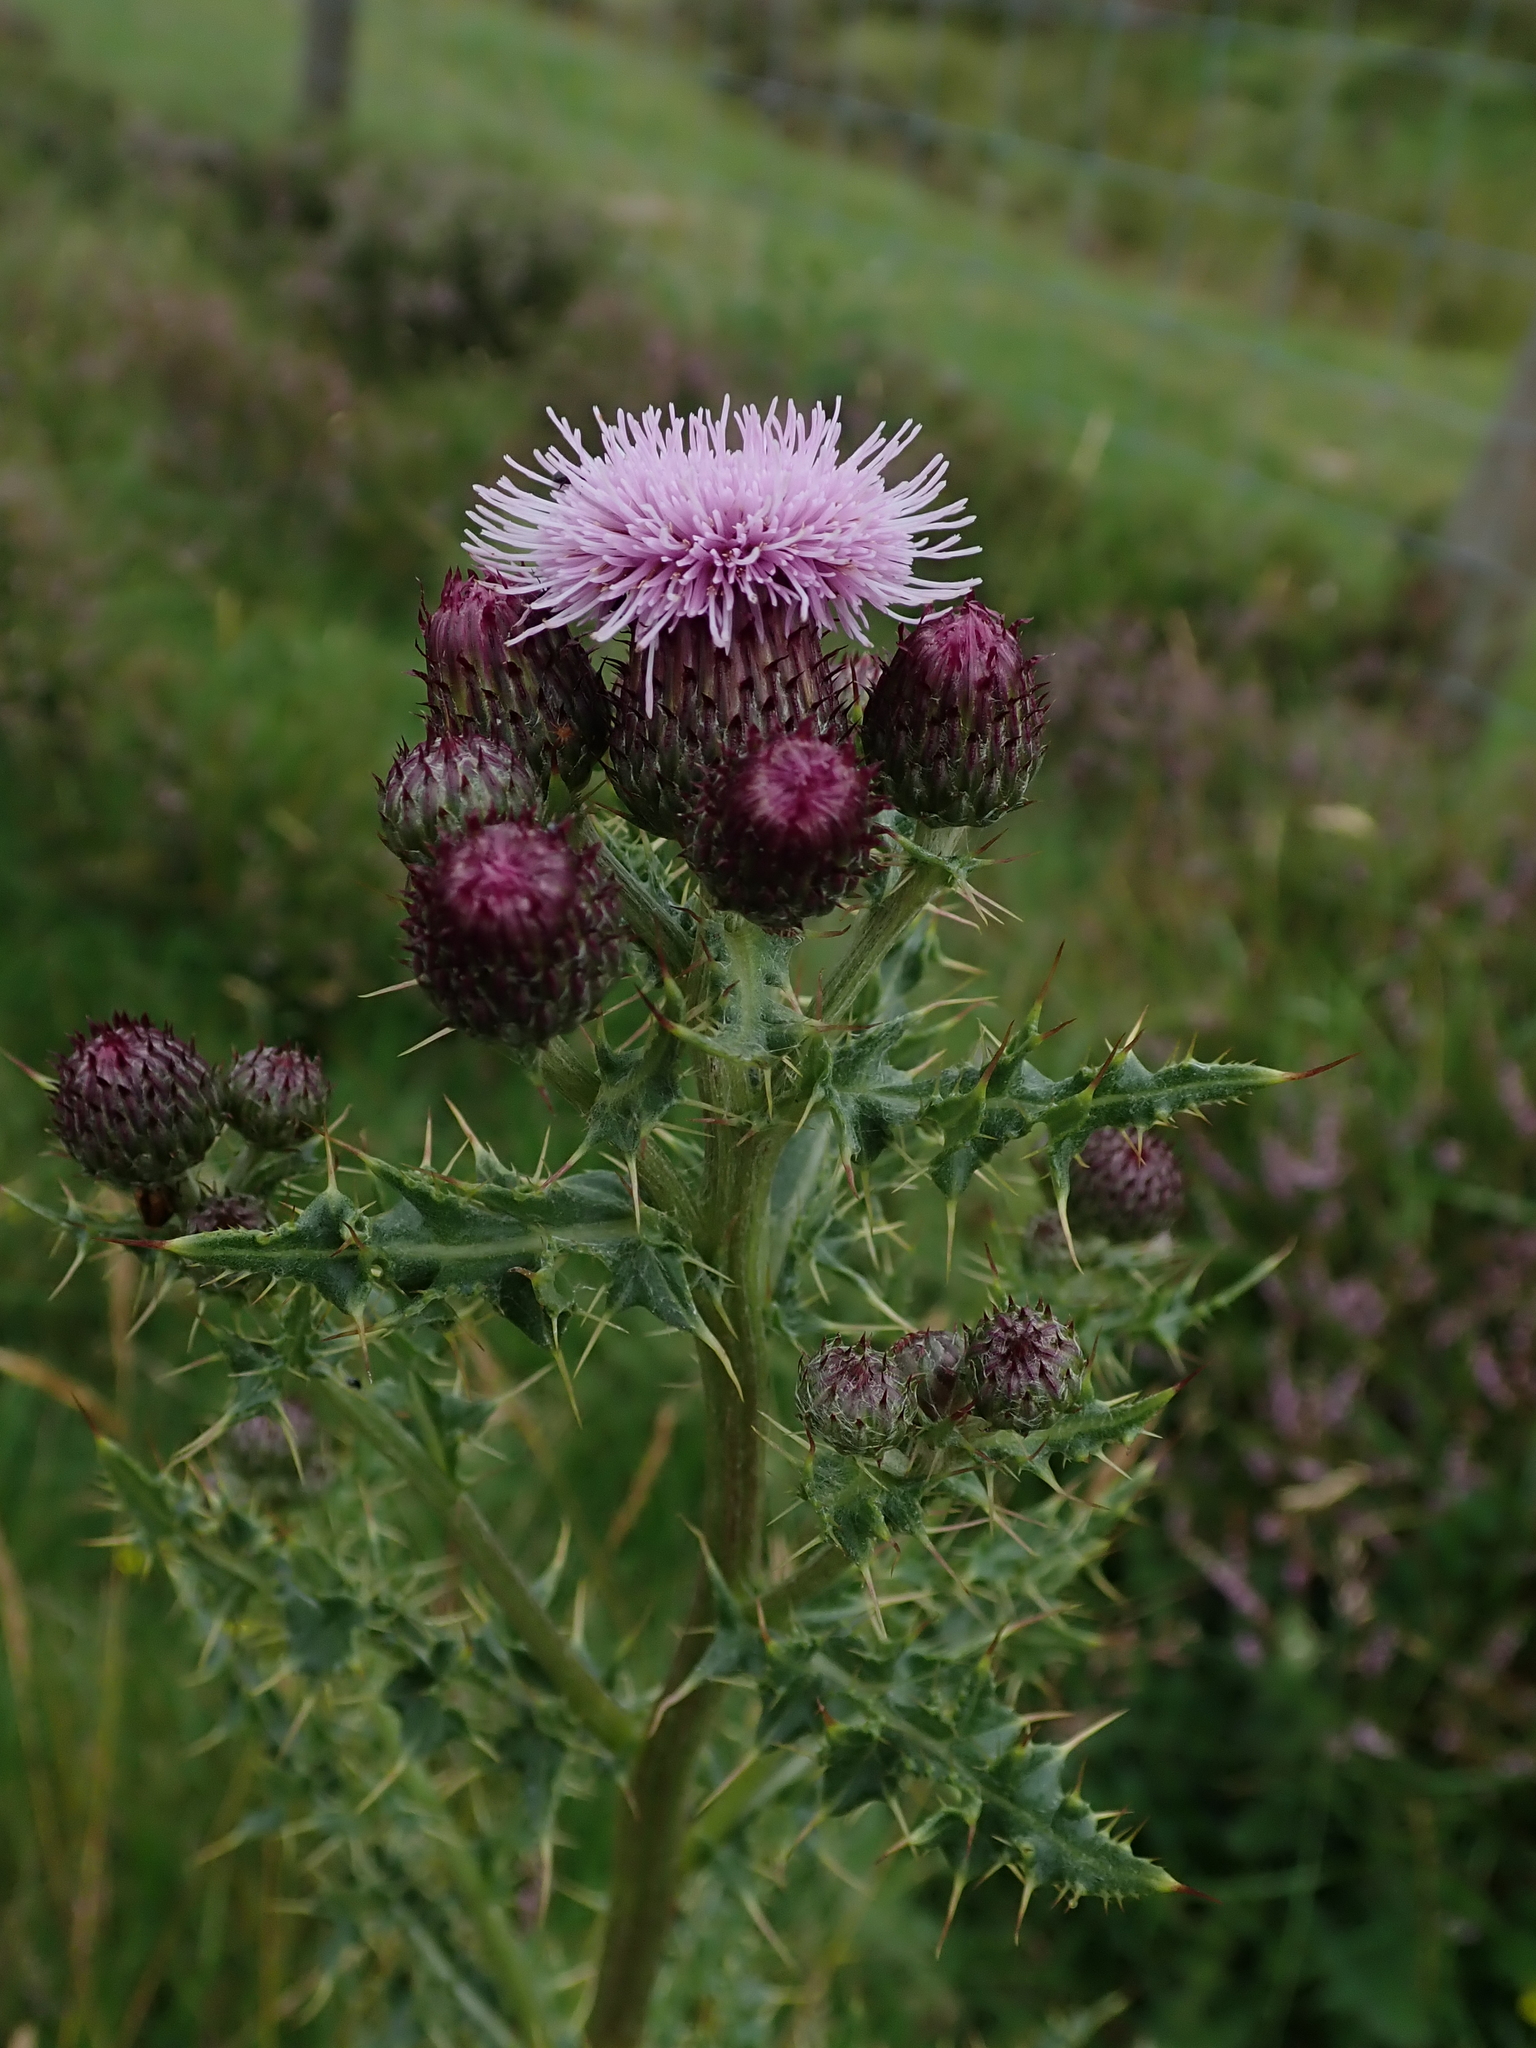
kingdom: Plantae
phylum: Tracheophyta
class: Magnoliopsida
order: Asterales
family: Asteraceae
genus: Cirsium
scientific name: Cirsium arvense
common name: Creeping thistle
